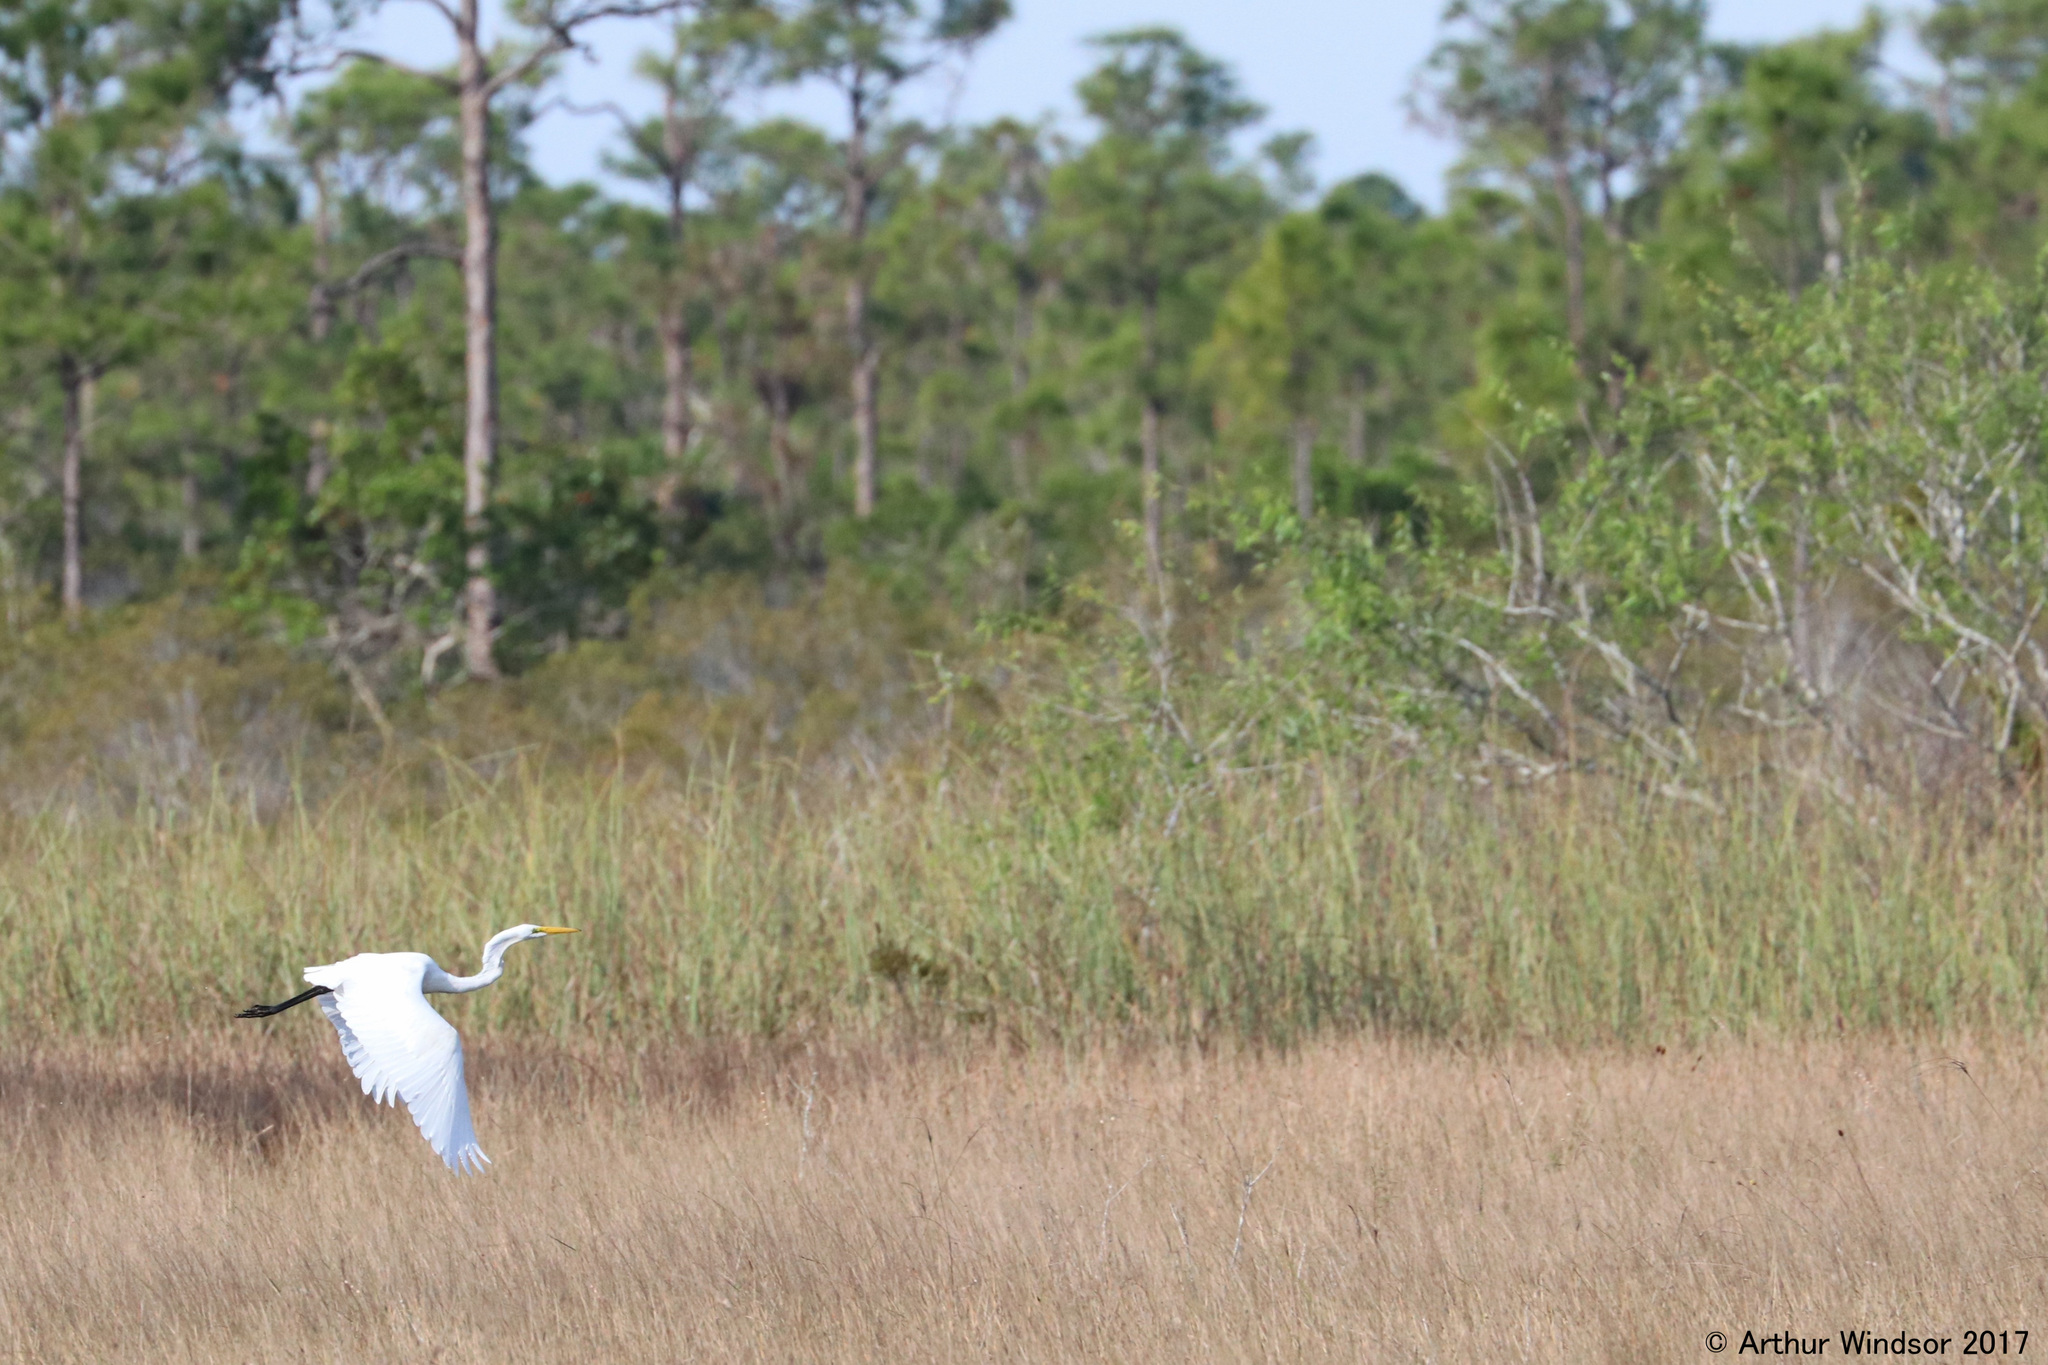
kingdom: Animalia
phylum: Chordata
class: Aves
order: Pelecaniformes
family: Ardeidae
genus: Ardea
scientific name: Ardea alba
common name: Great egret
